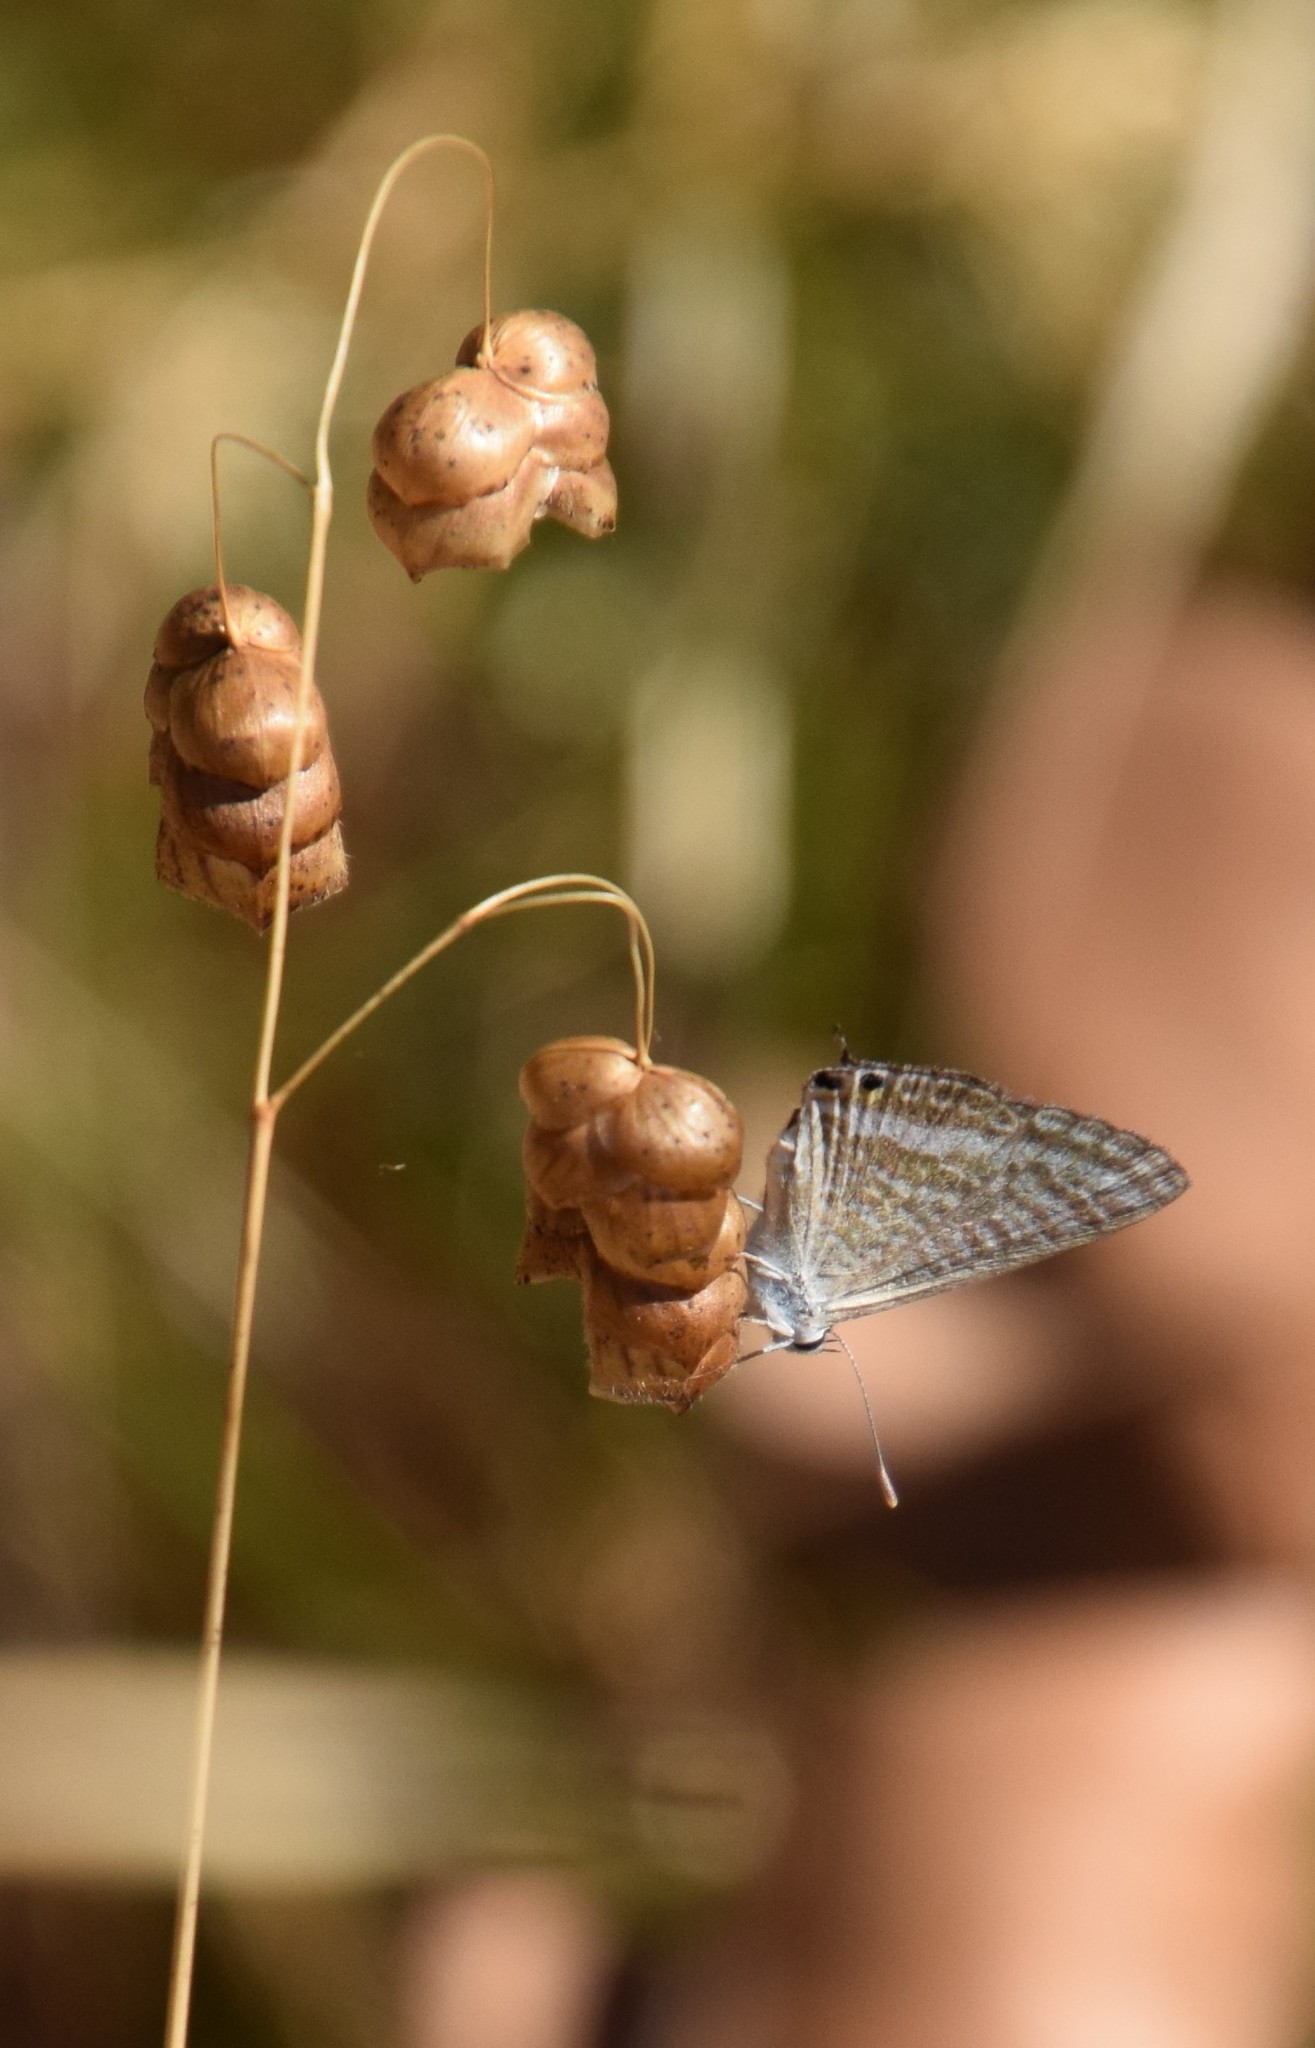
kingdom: Animalia
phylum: Arthropoda
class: Insecta
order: Lepidoptera
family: Lycaenidae
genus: Lampides
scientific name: Lampides boeticus
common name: Long-tailed blue
